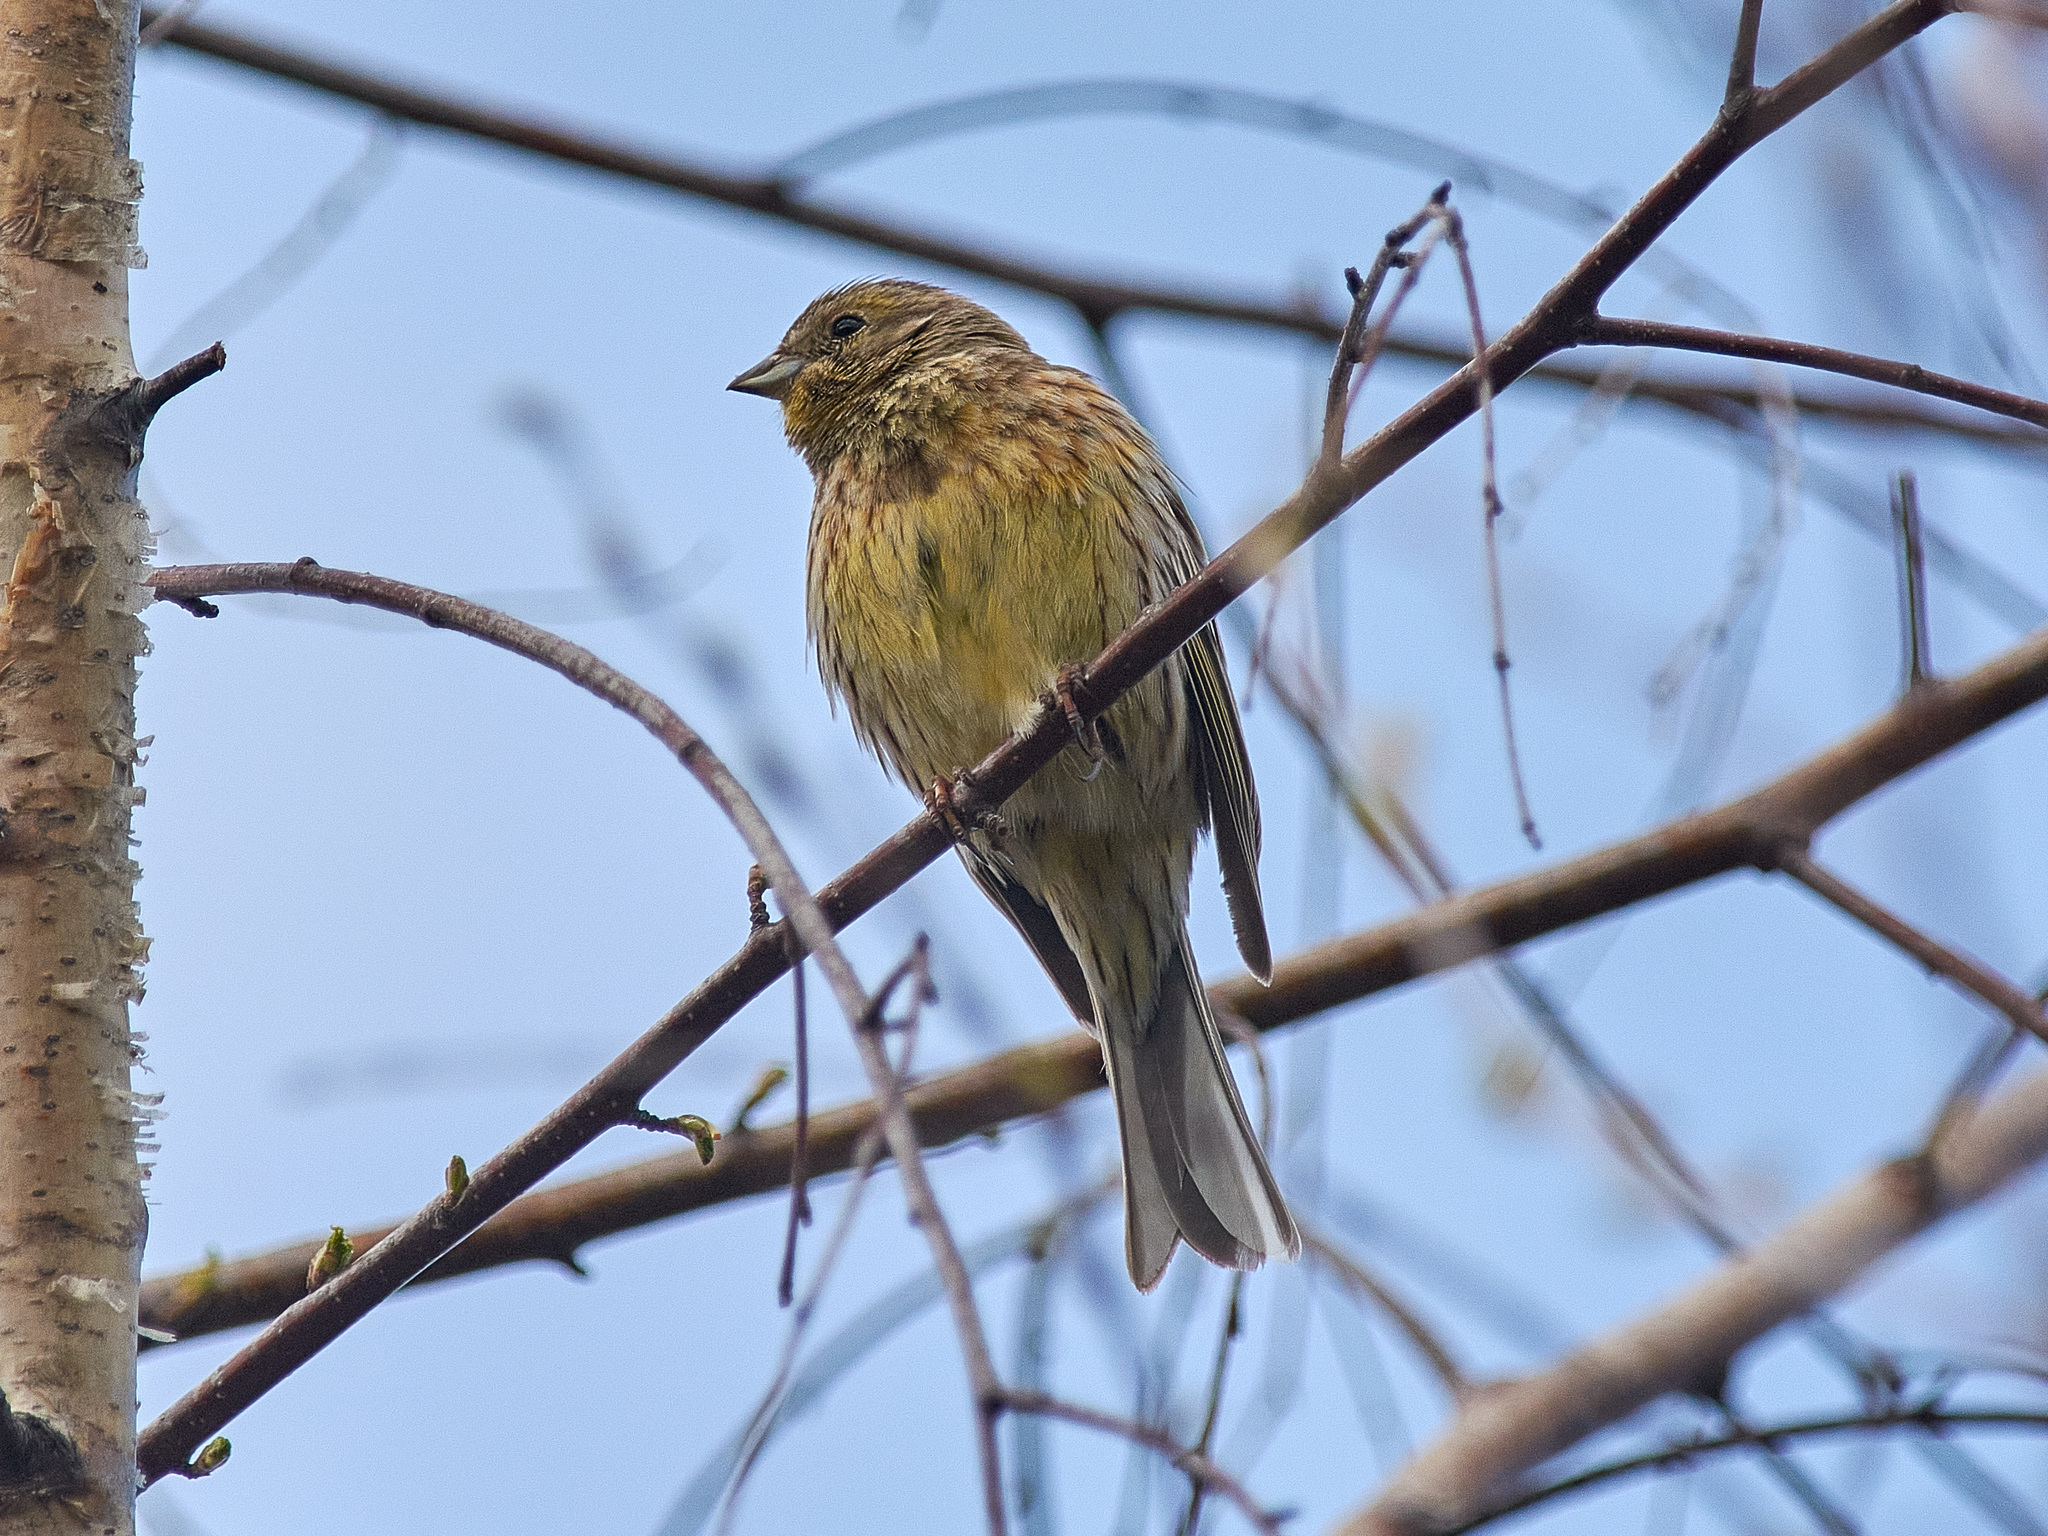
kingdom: Animalia
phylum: Chordata
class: Aves
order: Passeriformes
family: Emberizidae
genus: Emberiza
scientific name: Emberiza citrinella
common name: Yellowhammer
